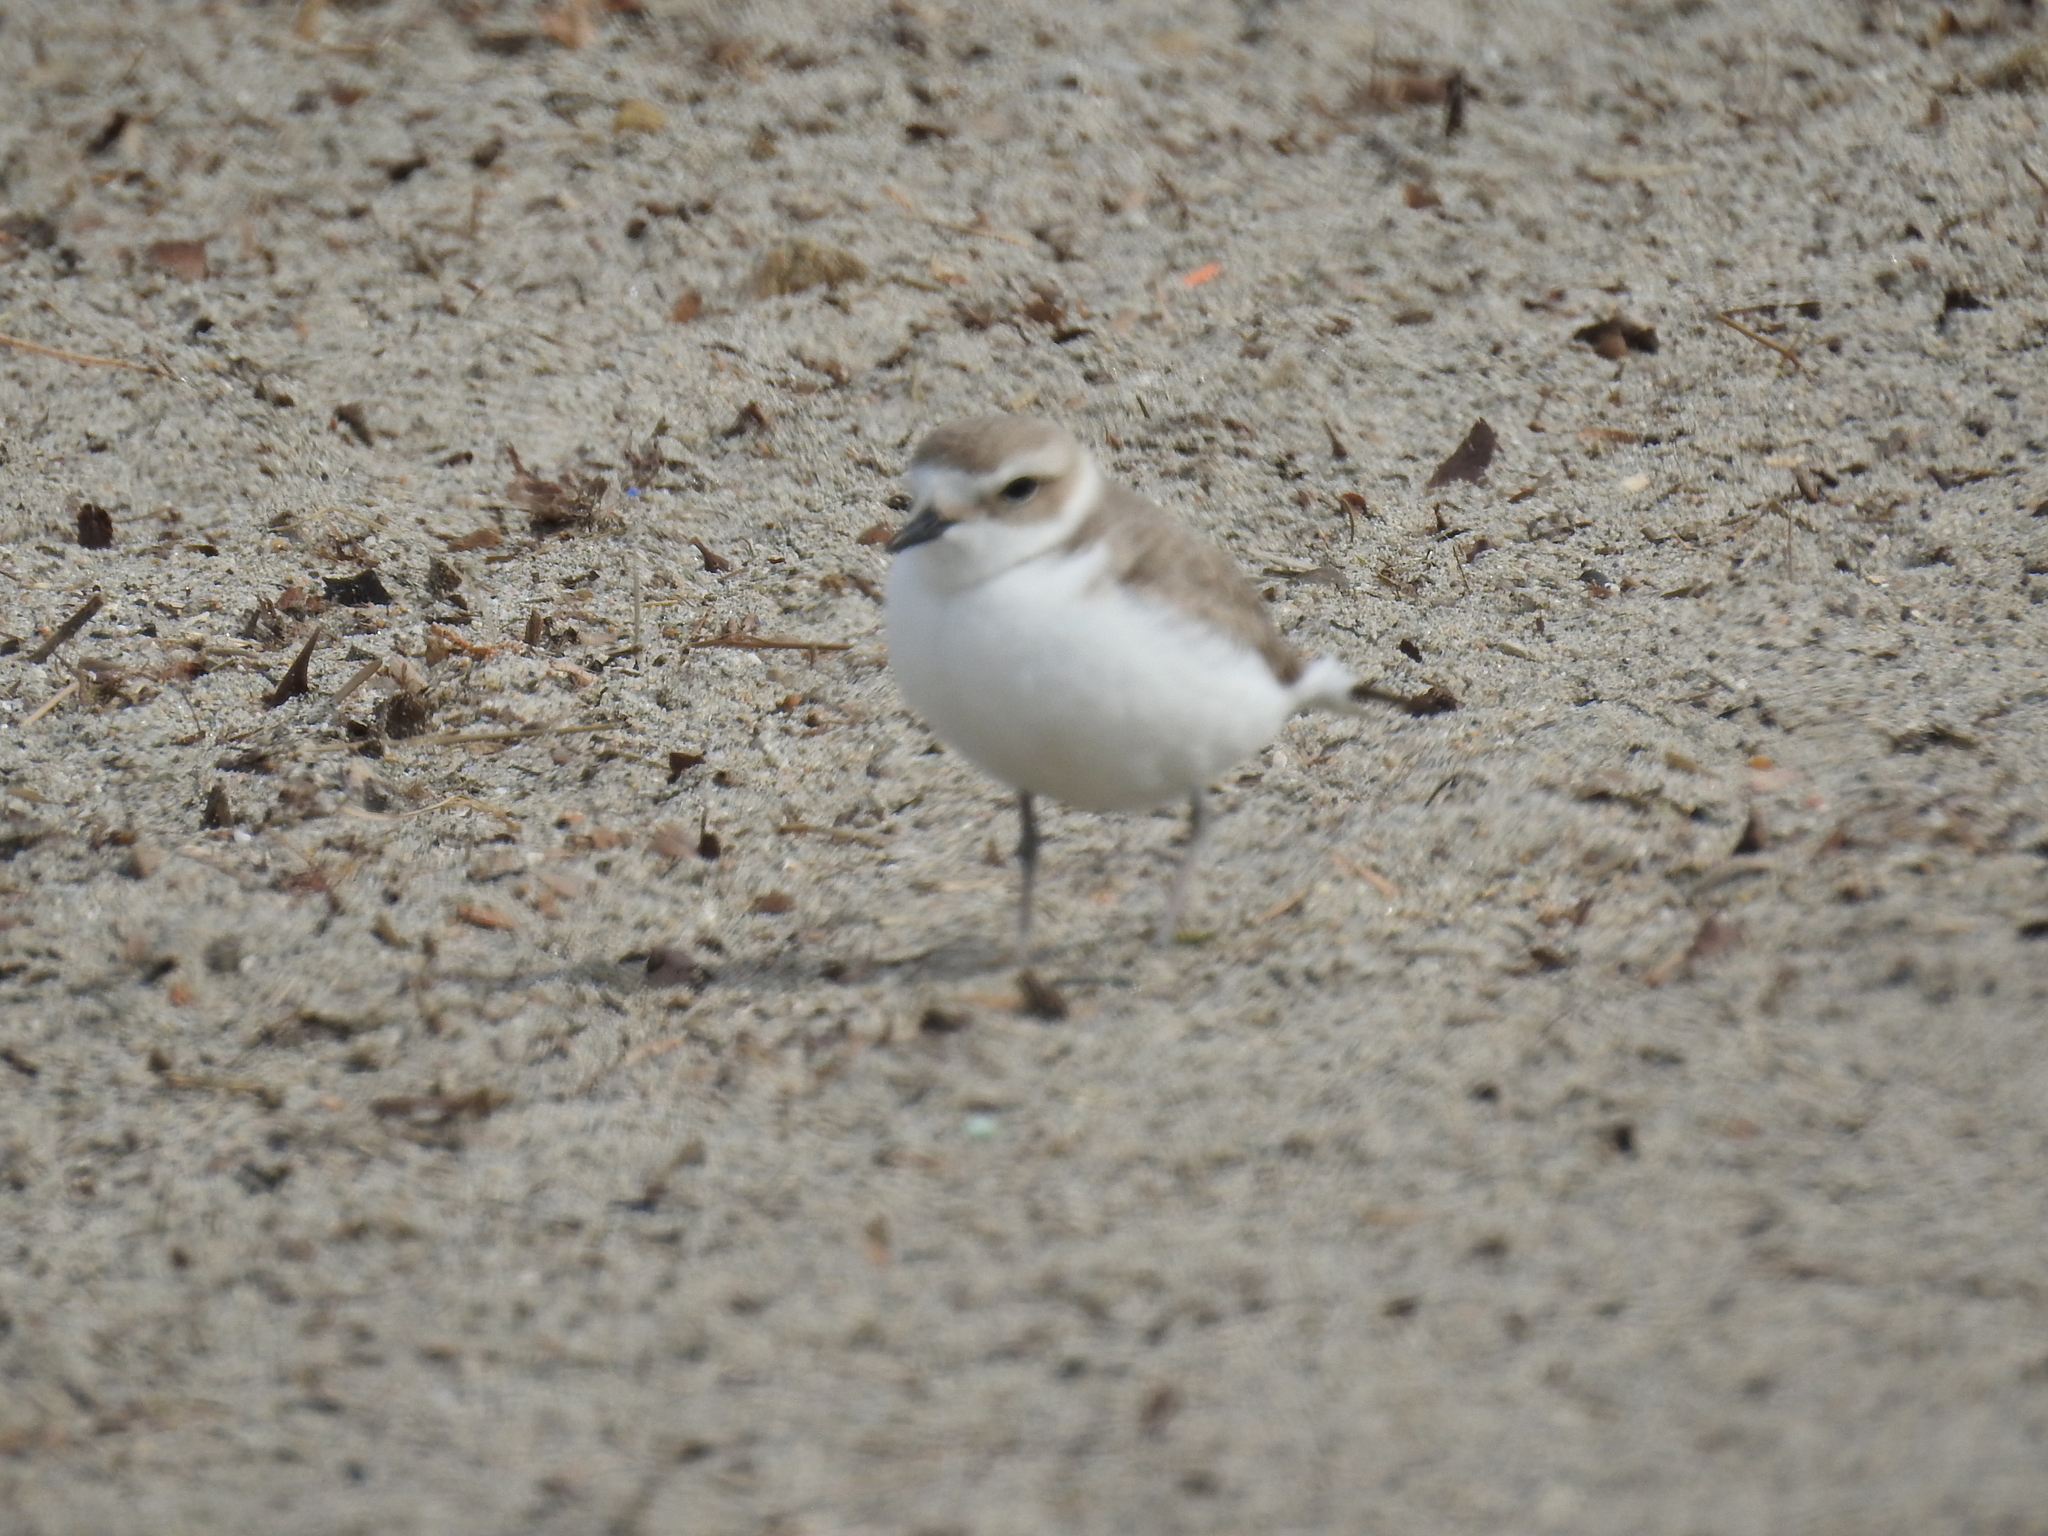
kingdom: Animalia
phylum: Chordata
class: Aves
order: Charadriiformes
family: Charadriidae
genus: Anarhynchus
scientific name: Anarhynchus
